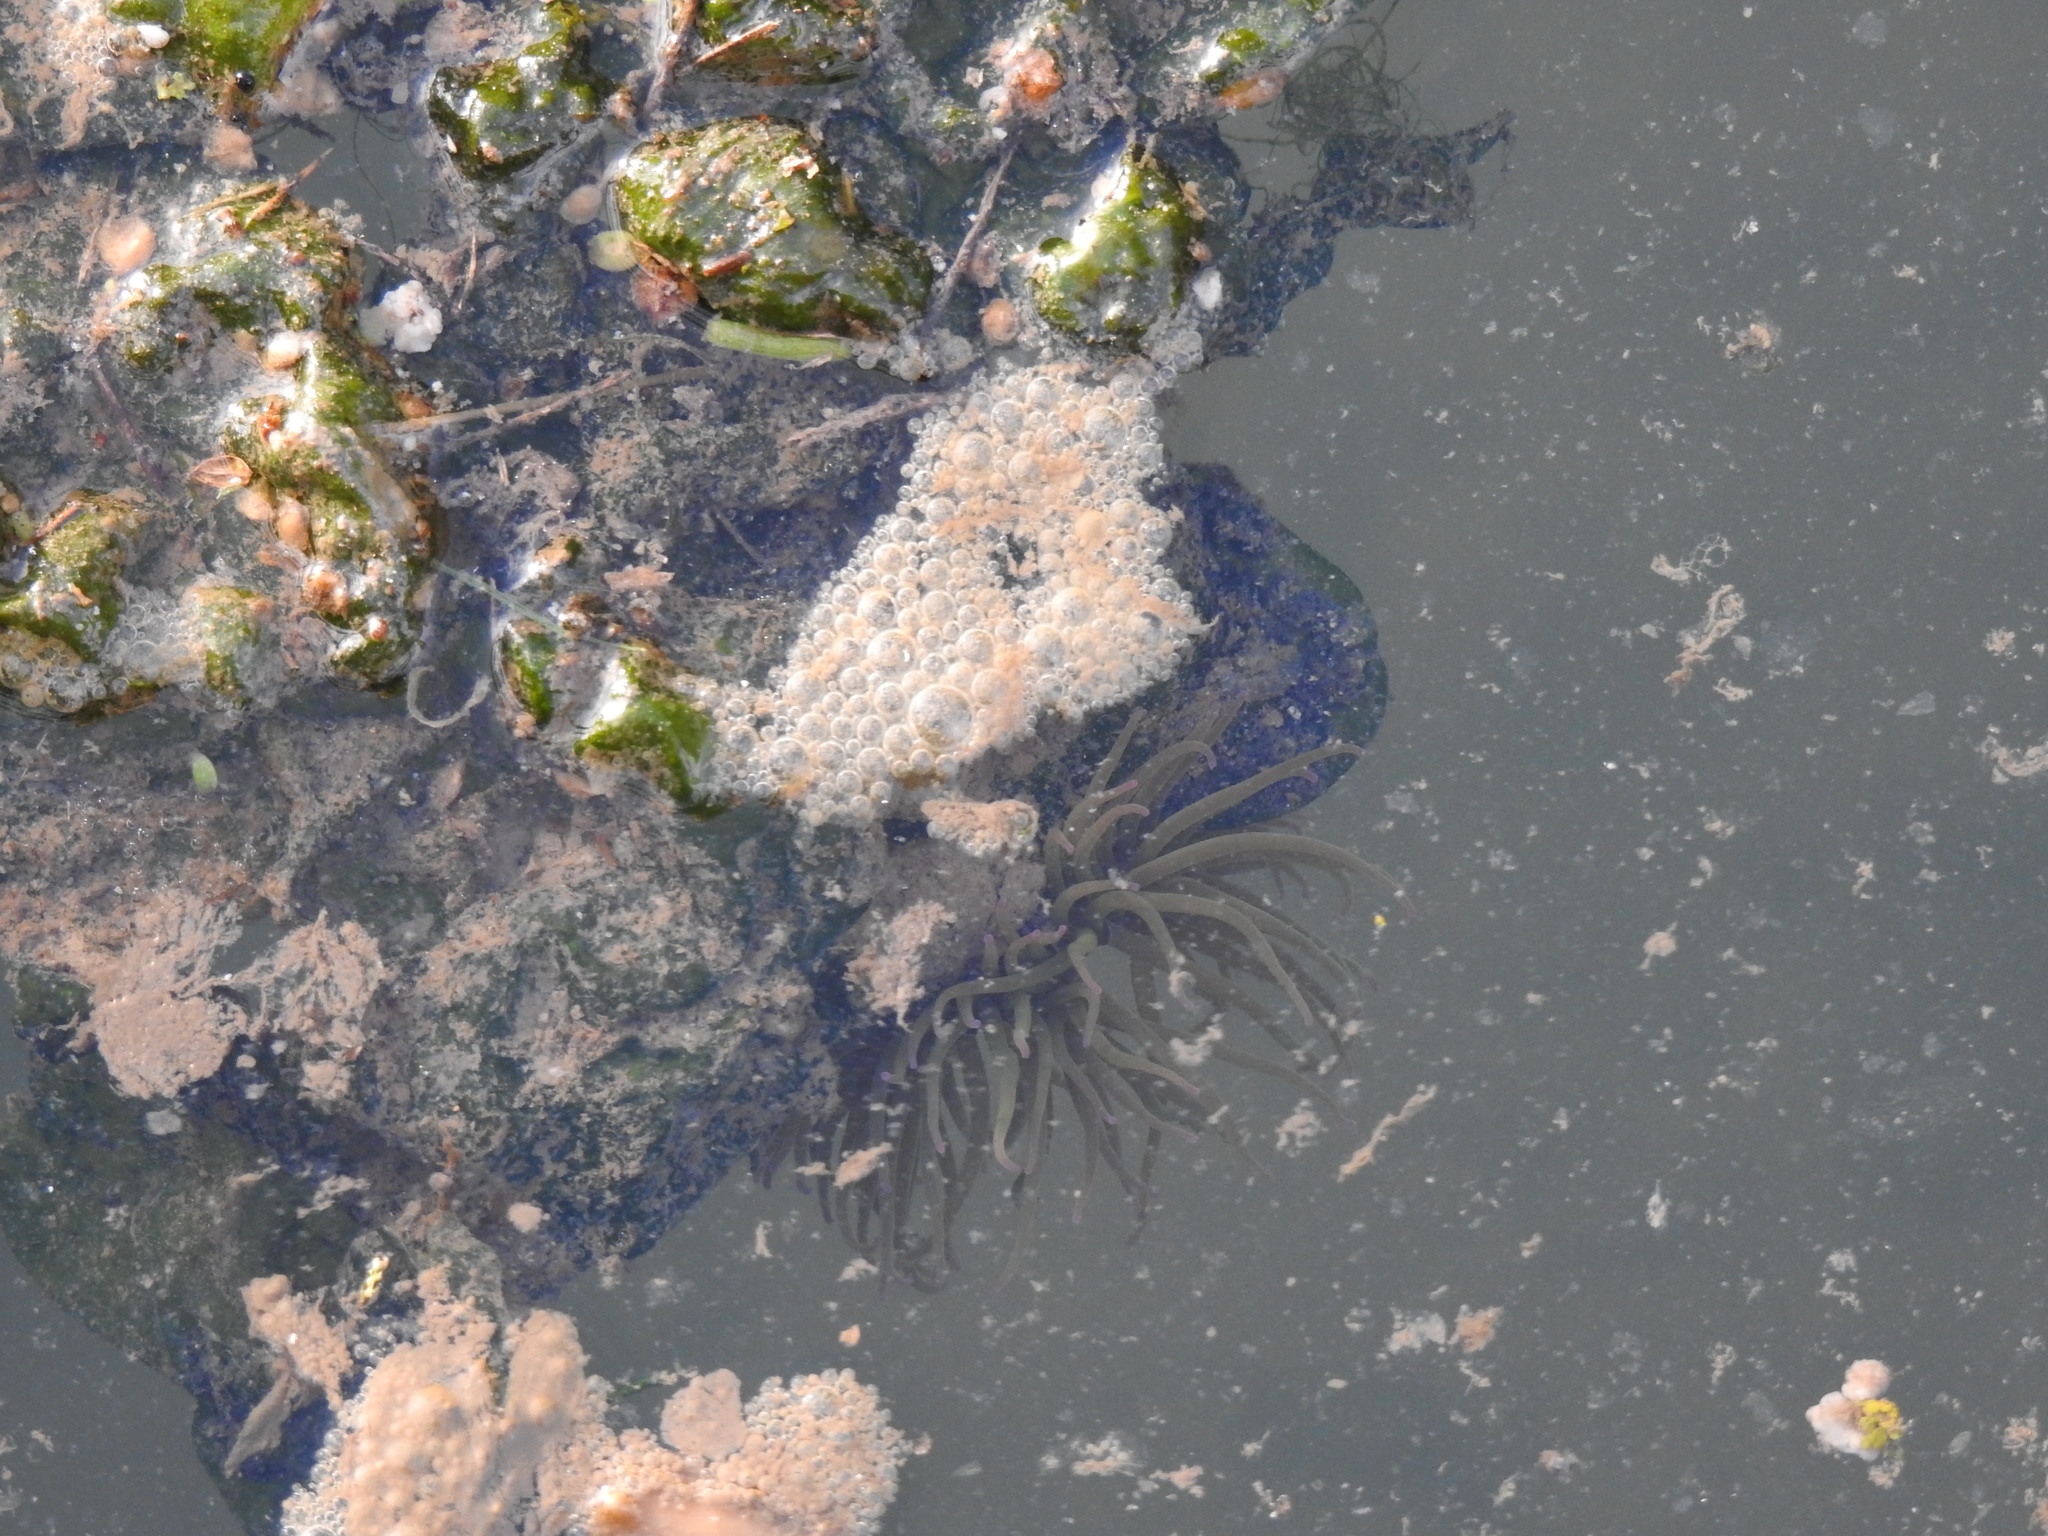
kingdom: Animalia
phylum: Cnidaria
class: Anthozoa
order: Actiniaria
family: Actiniidae
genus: Anemonia
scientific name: Anemonia viridis
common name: Snakelocks anemone
